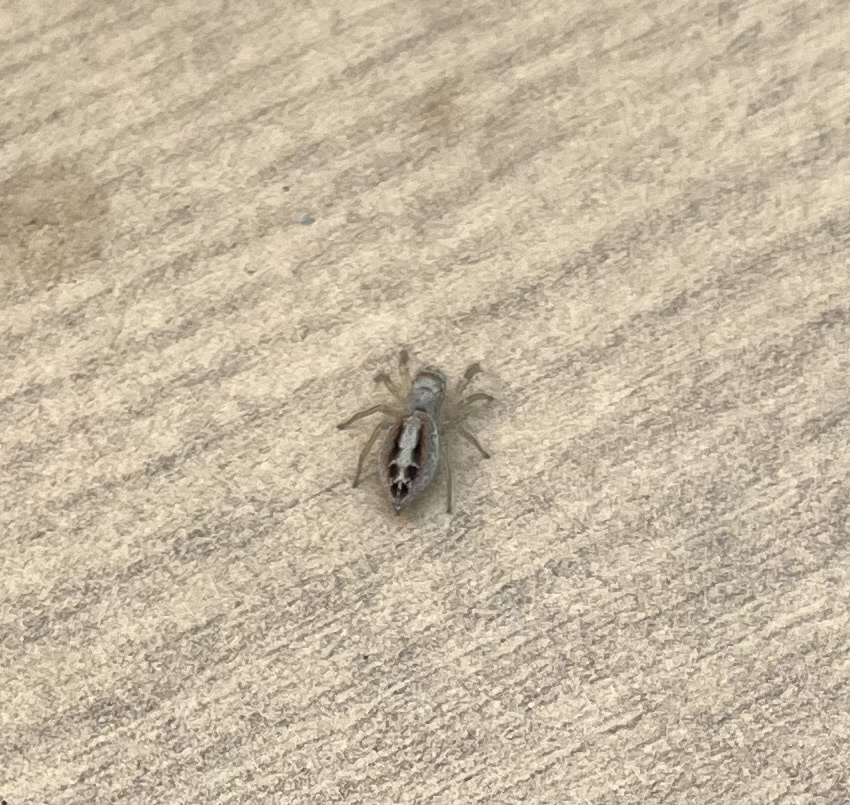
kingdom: Animalia
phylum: Arthropoda
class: Arachnida
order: Araneae
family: Salticidae
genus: Icius
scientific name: Icius hamatus
